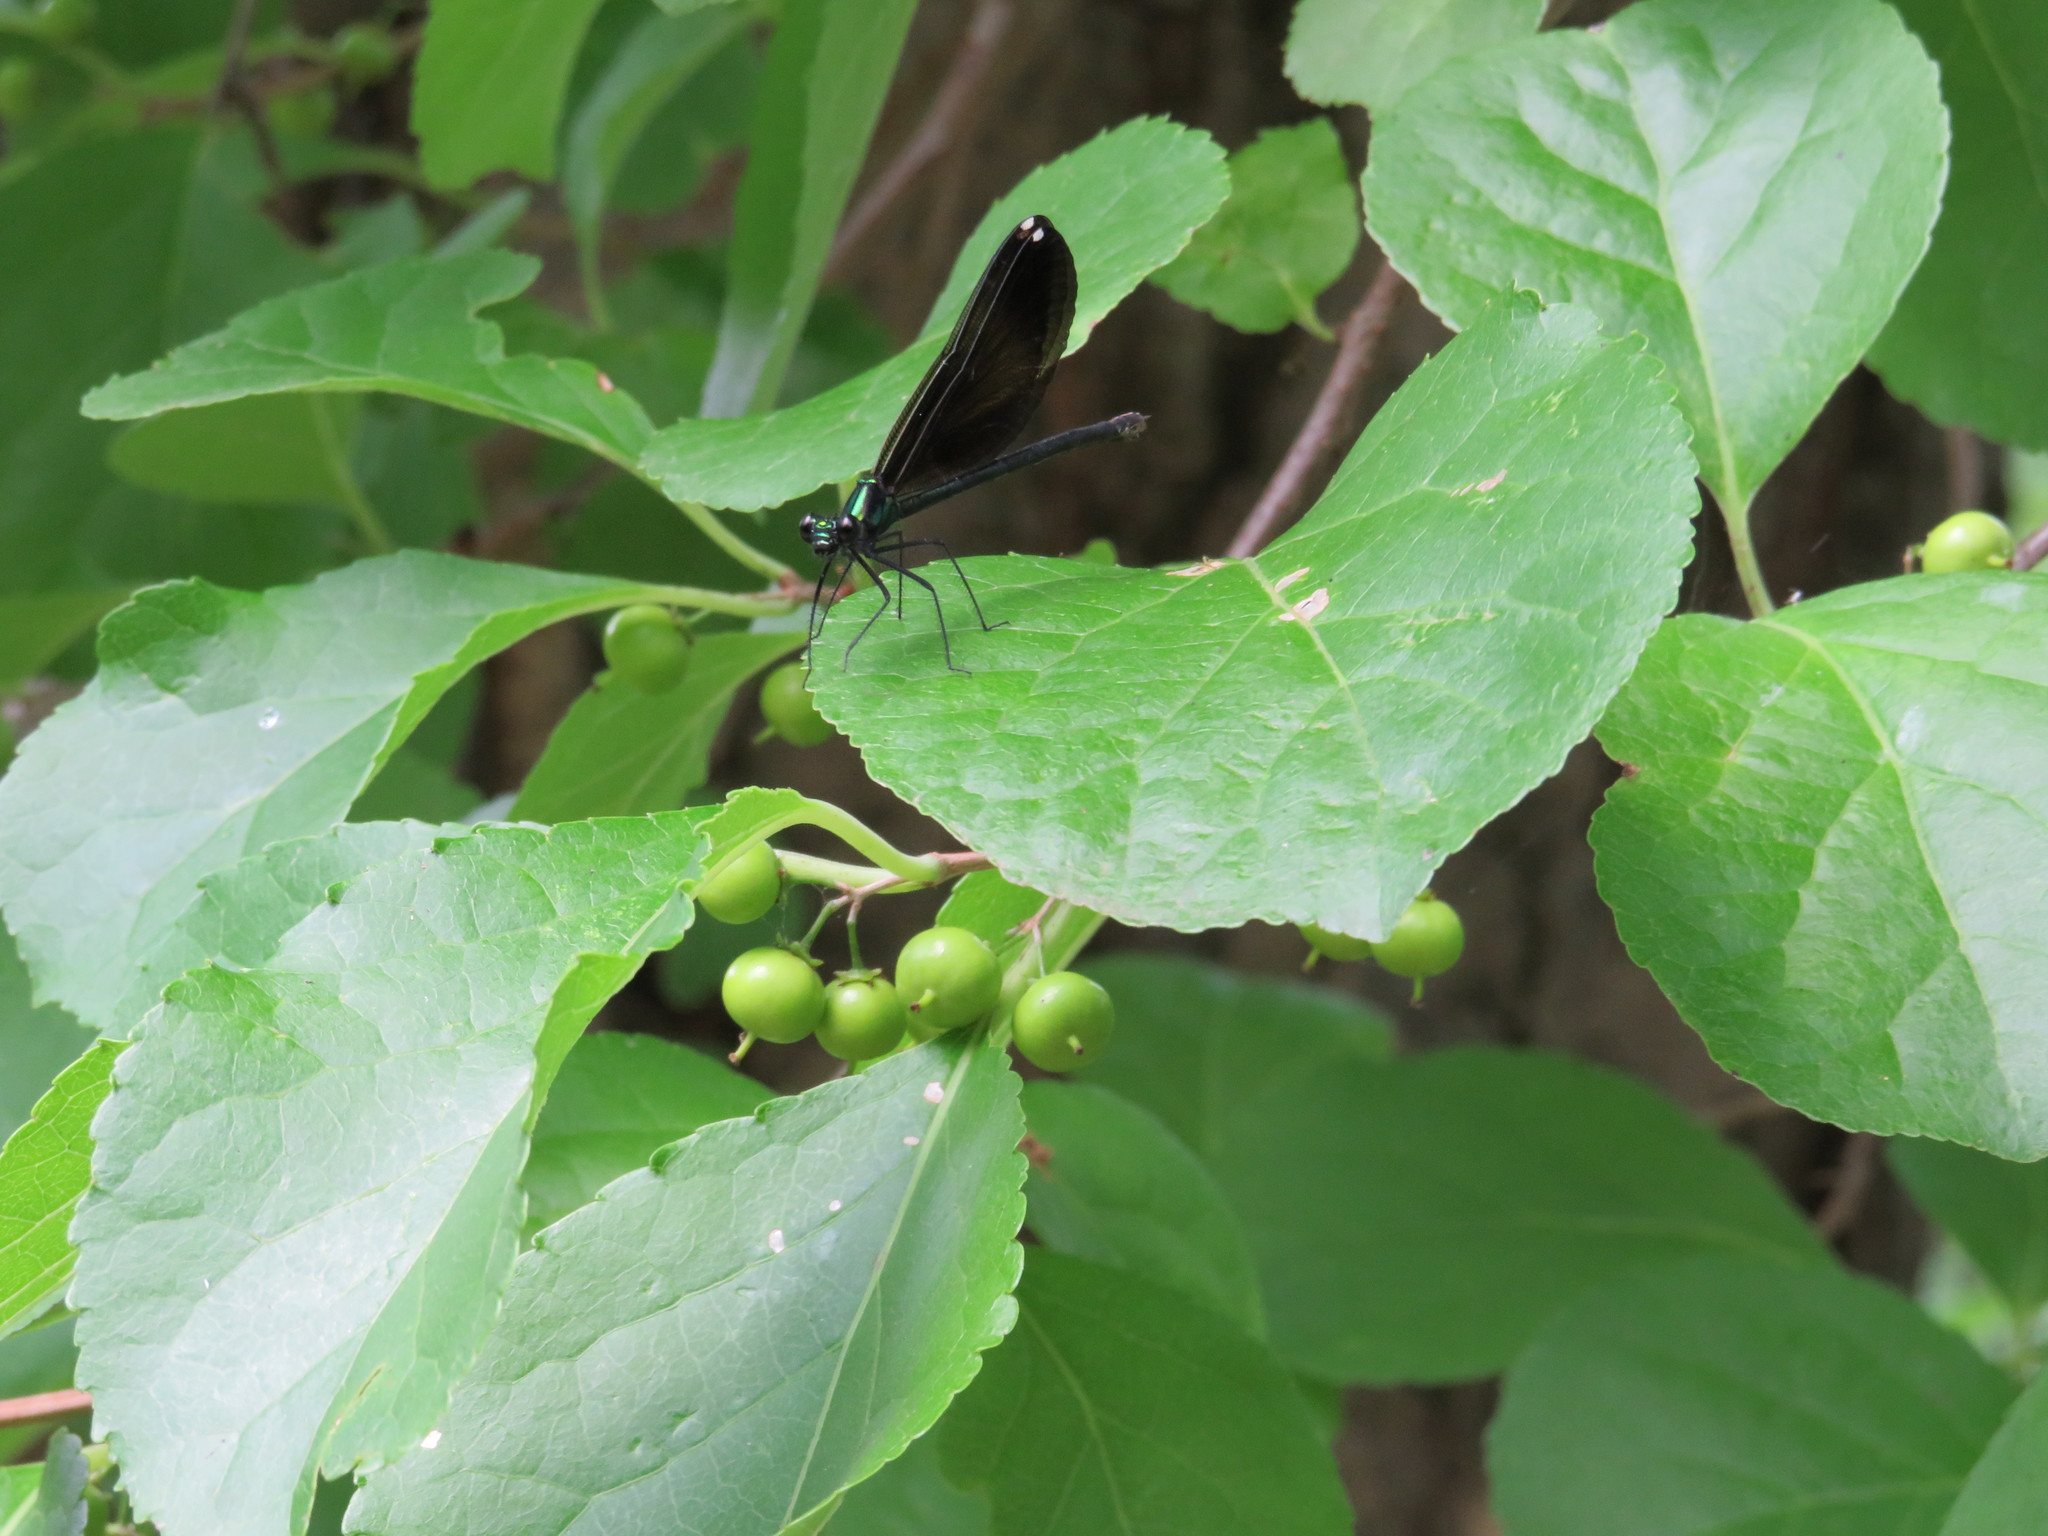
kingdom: Animalia
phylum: Arthropoda
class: Insecta
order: Odonata
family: Calopterygidae
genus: Calopteryx
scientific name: Calopteryx maculata
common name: Ebony jewelwing
